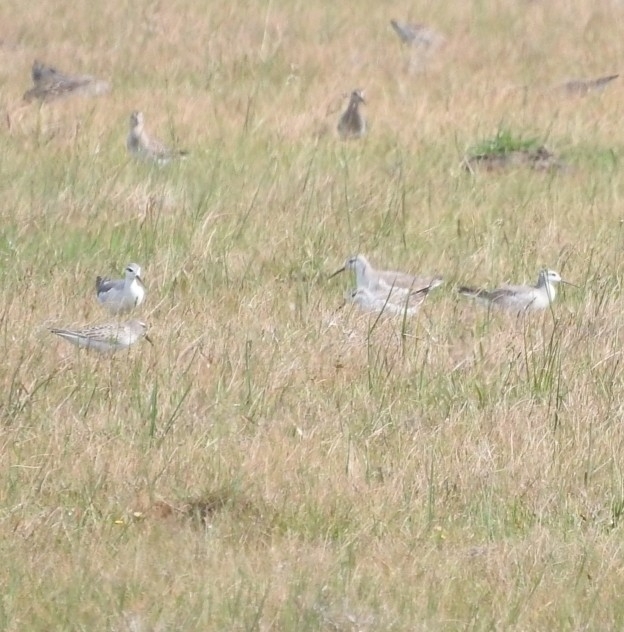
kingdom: Animalia
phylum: Chordata
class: Aves
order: Charadriiformes
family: Scolopacidae
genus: Phalaropus
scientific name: Phalaropus tricolor
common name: Wilson's phalarope
